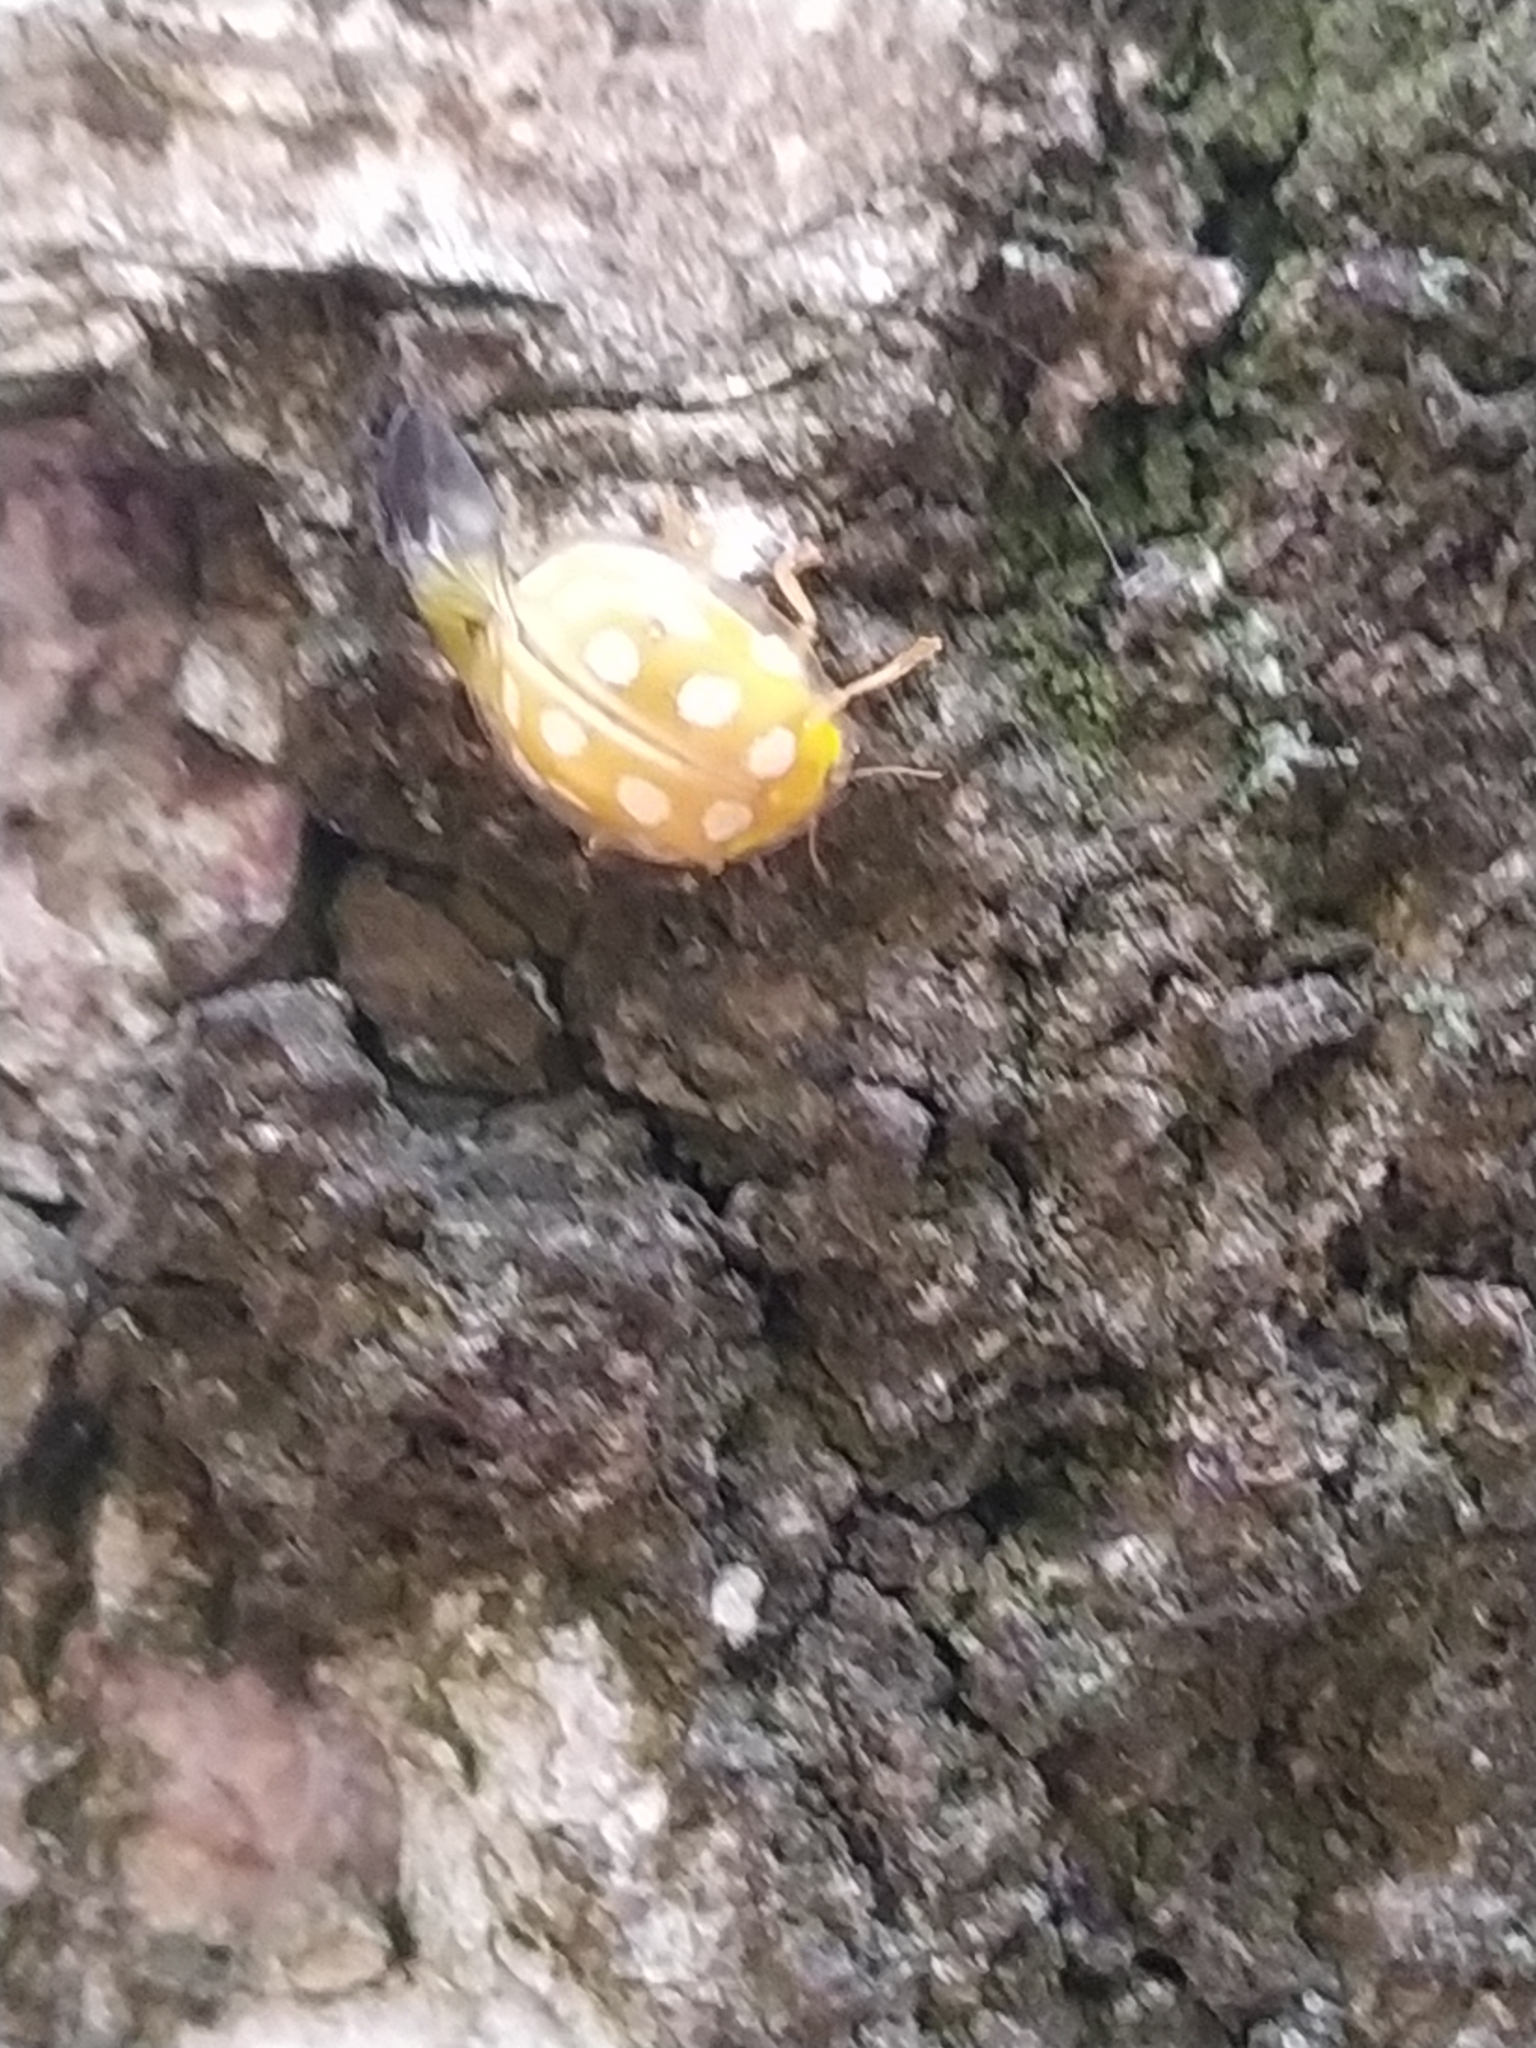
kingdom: Animalia
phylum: Arthropoda
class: Insecta
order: Coleoptera
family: Coccinellidae
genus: Halyzia
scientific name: Halyzia sedecimguttata
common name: Orange ladybird
